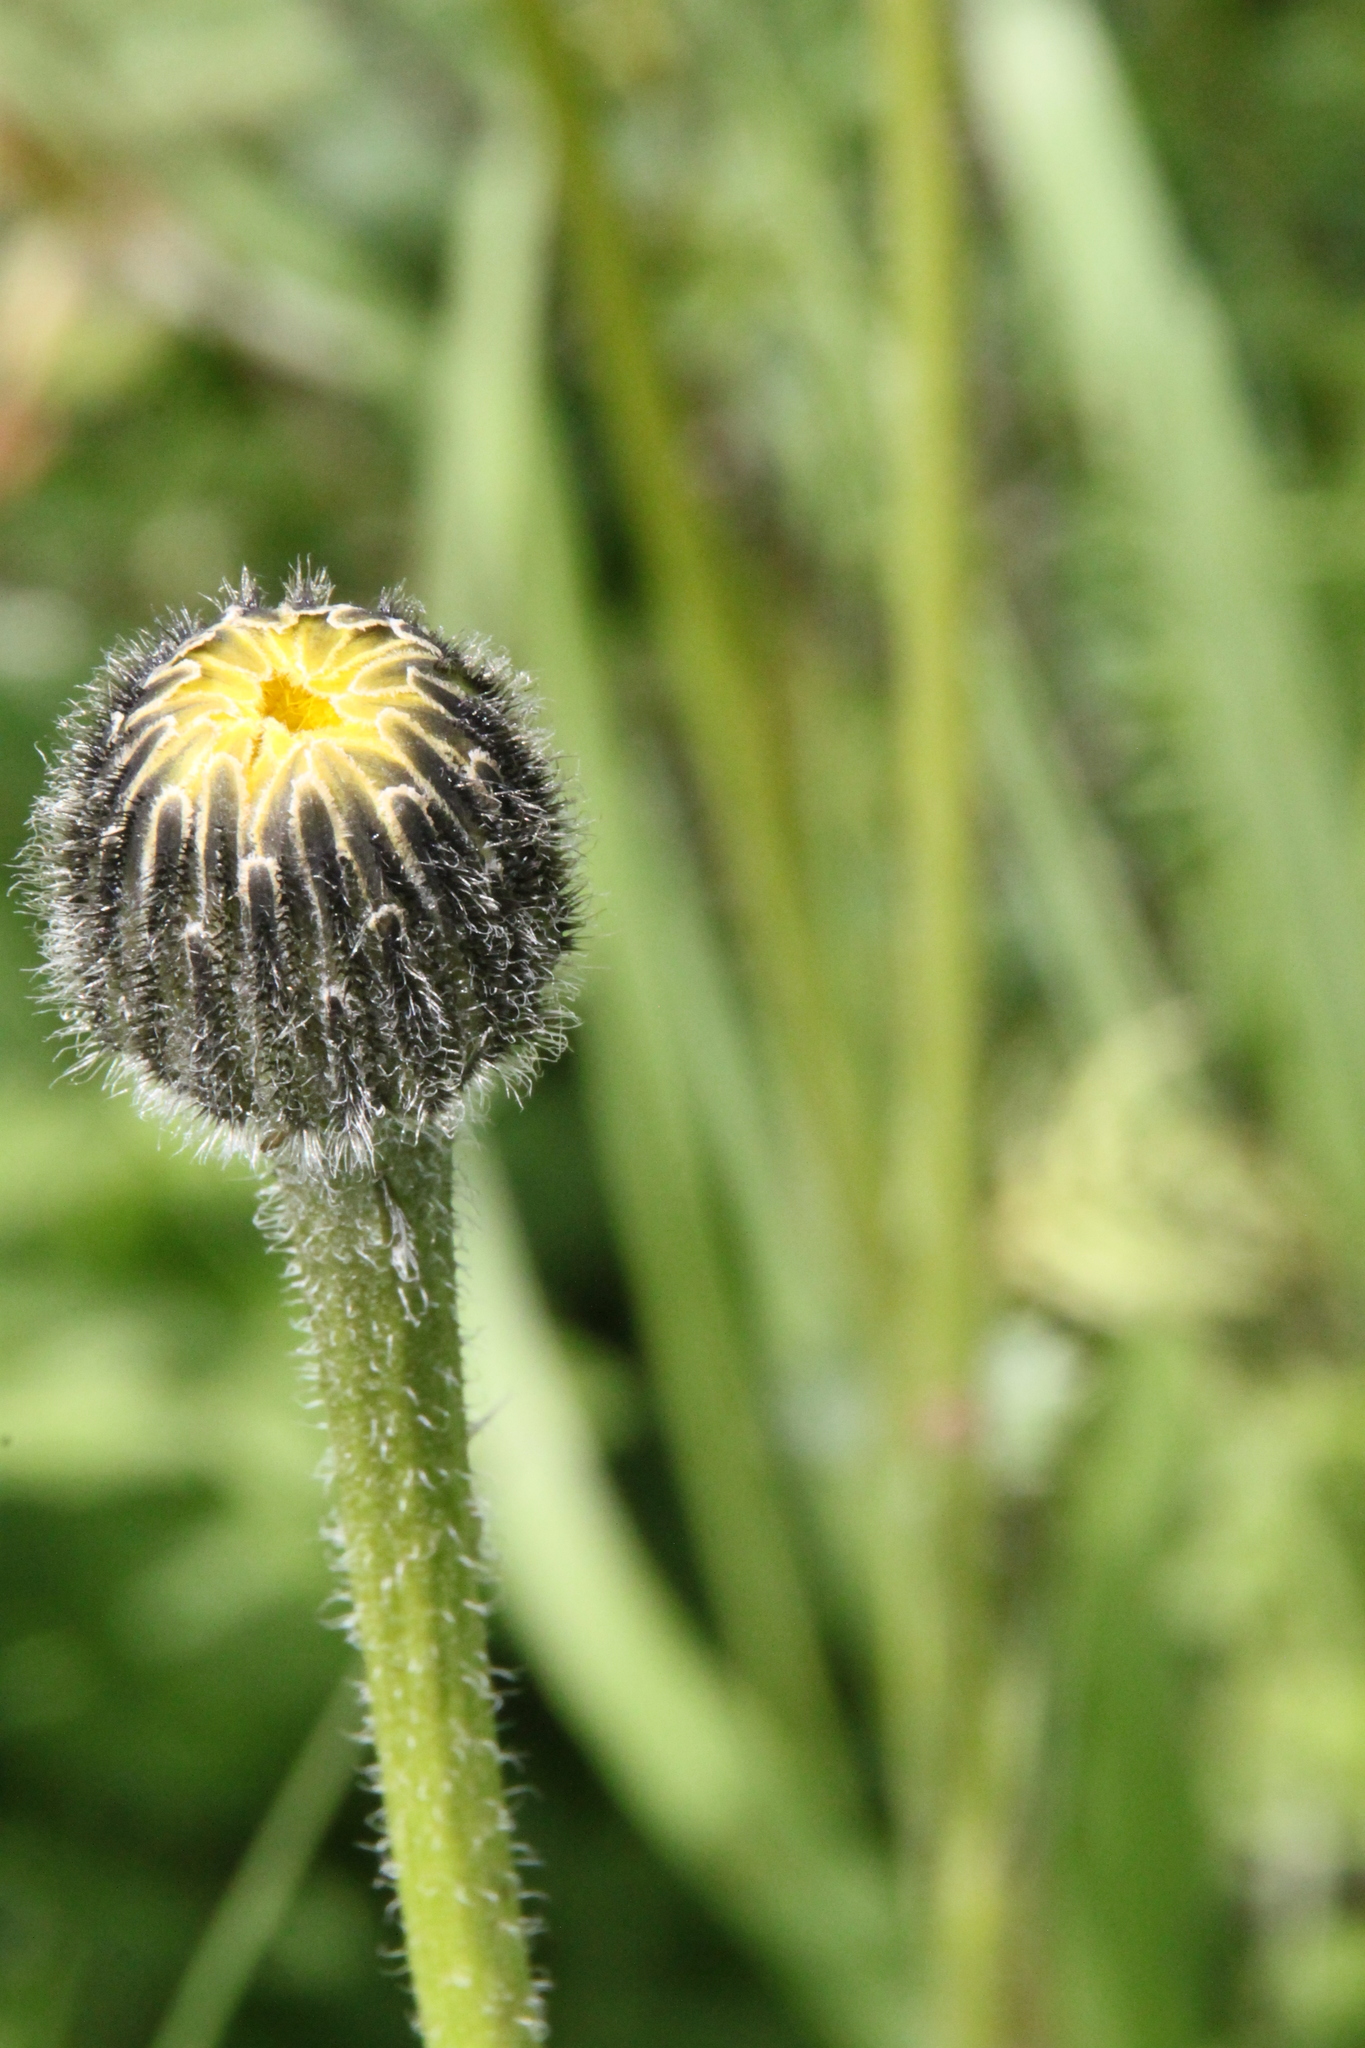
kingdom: Plantae
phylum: Tracheophyta
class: Magnoliopsida
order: Asterales
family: Asteraceae
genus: Trommsdorffia
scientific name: Trommsdorffia maculata
